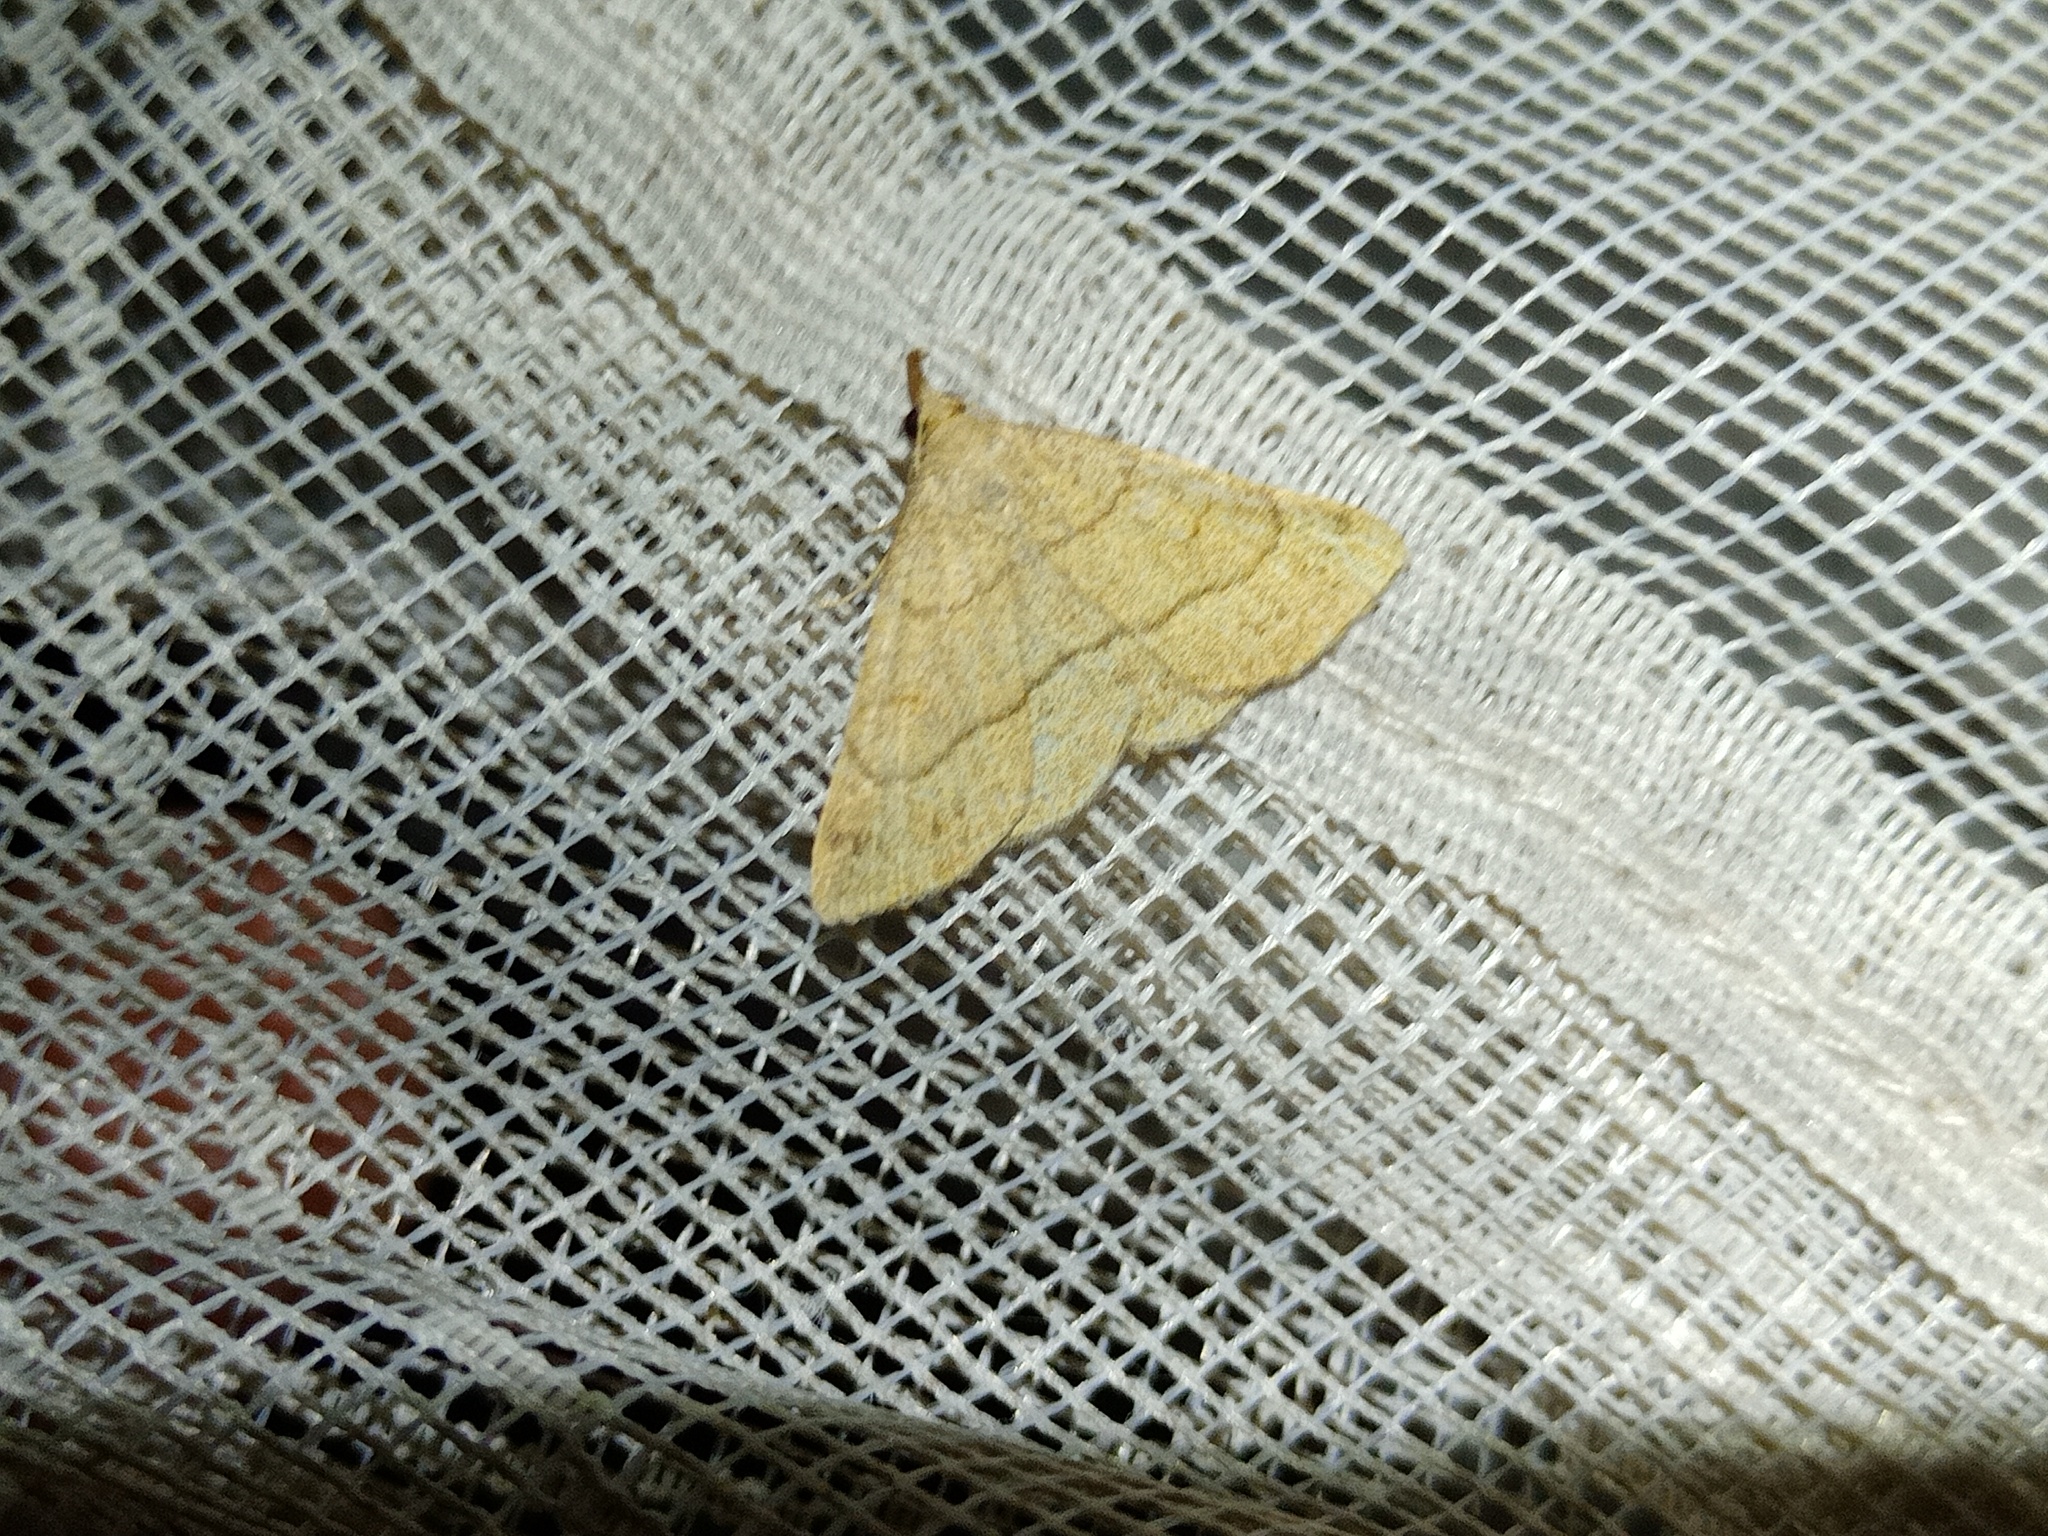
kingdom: Animalia
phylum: Arthropoda
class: Insecta
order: Lepidoptera
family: Erebidae
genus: Paracolax
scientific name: Paracolax tristalis
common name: Clay fan-foot
